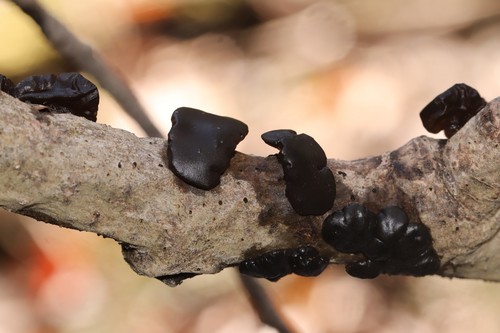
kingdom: Fungi
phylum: Basidiomycota
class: Agaricomycetes
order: Auriculariales
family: Auriculariaceae
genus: Exidia
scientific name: Exidia glandulosa
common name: Witches' butter
